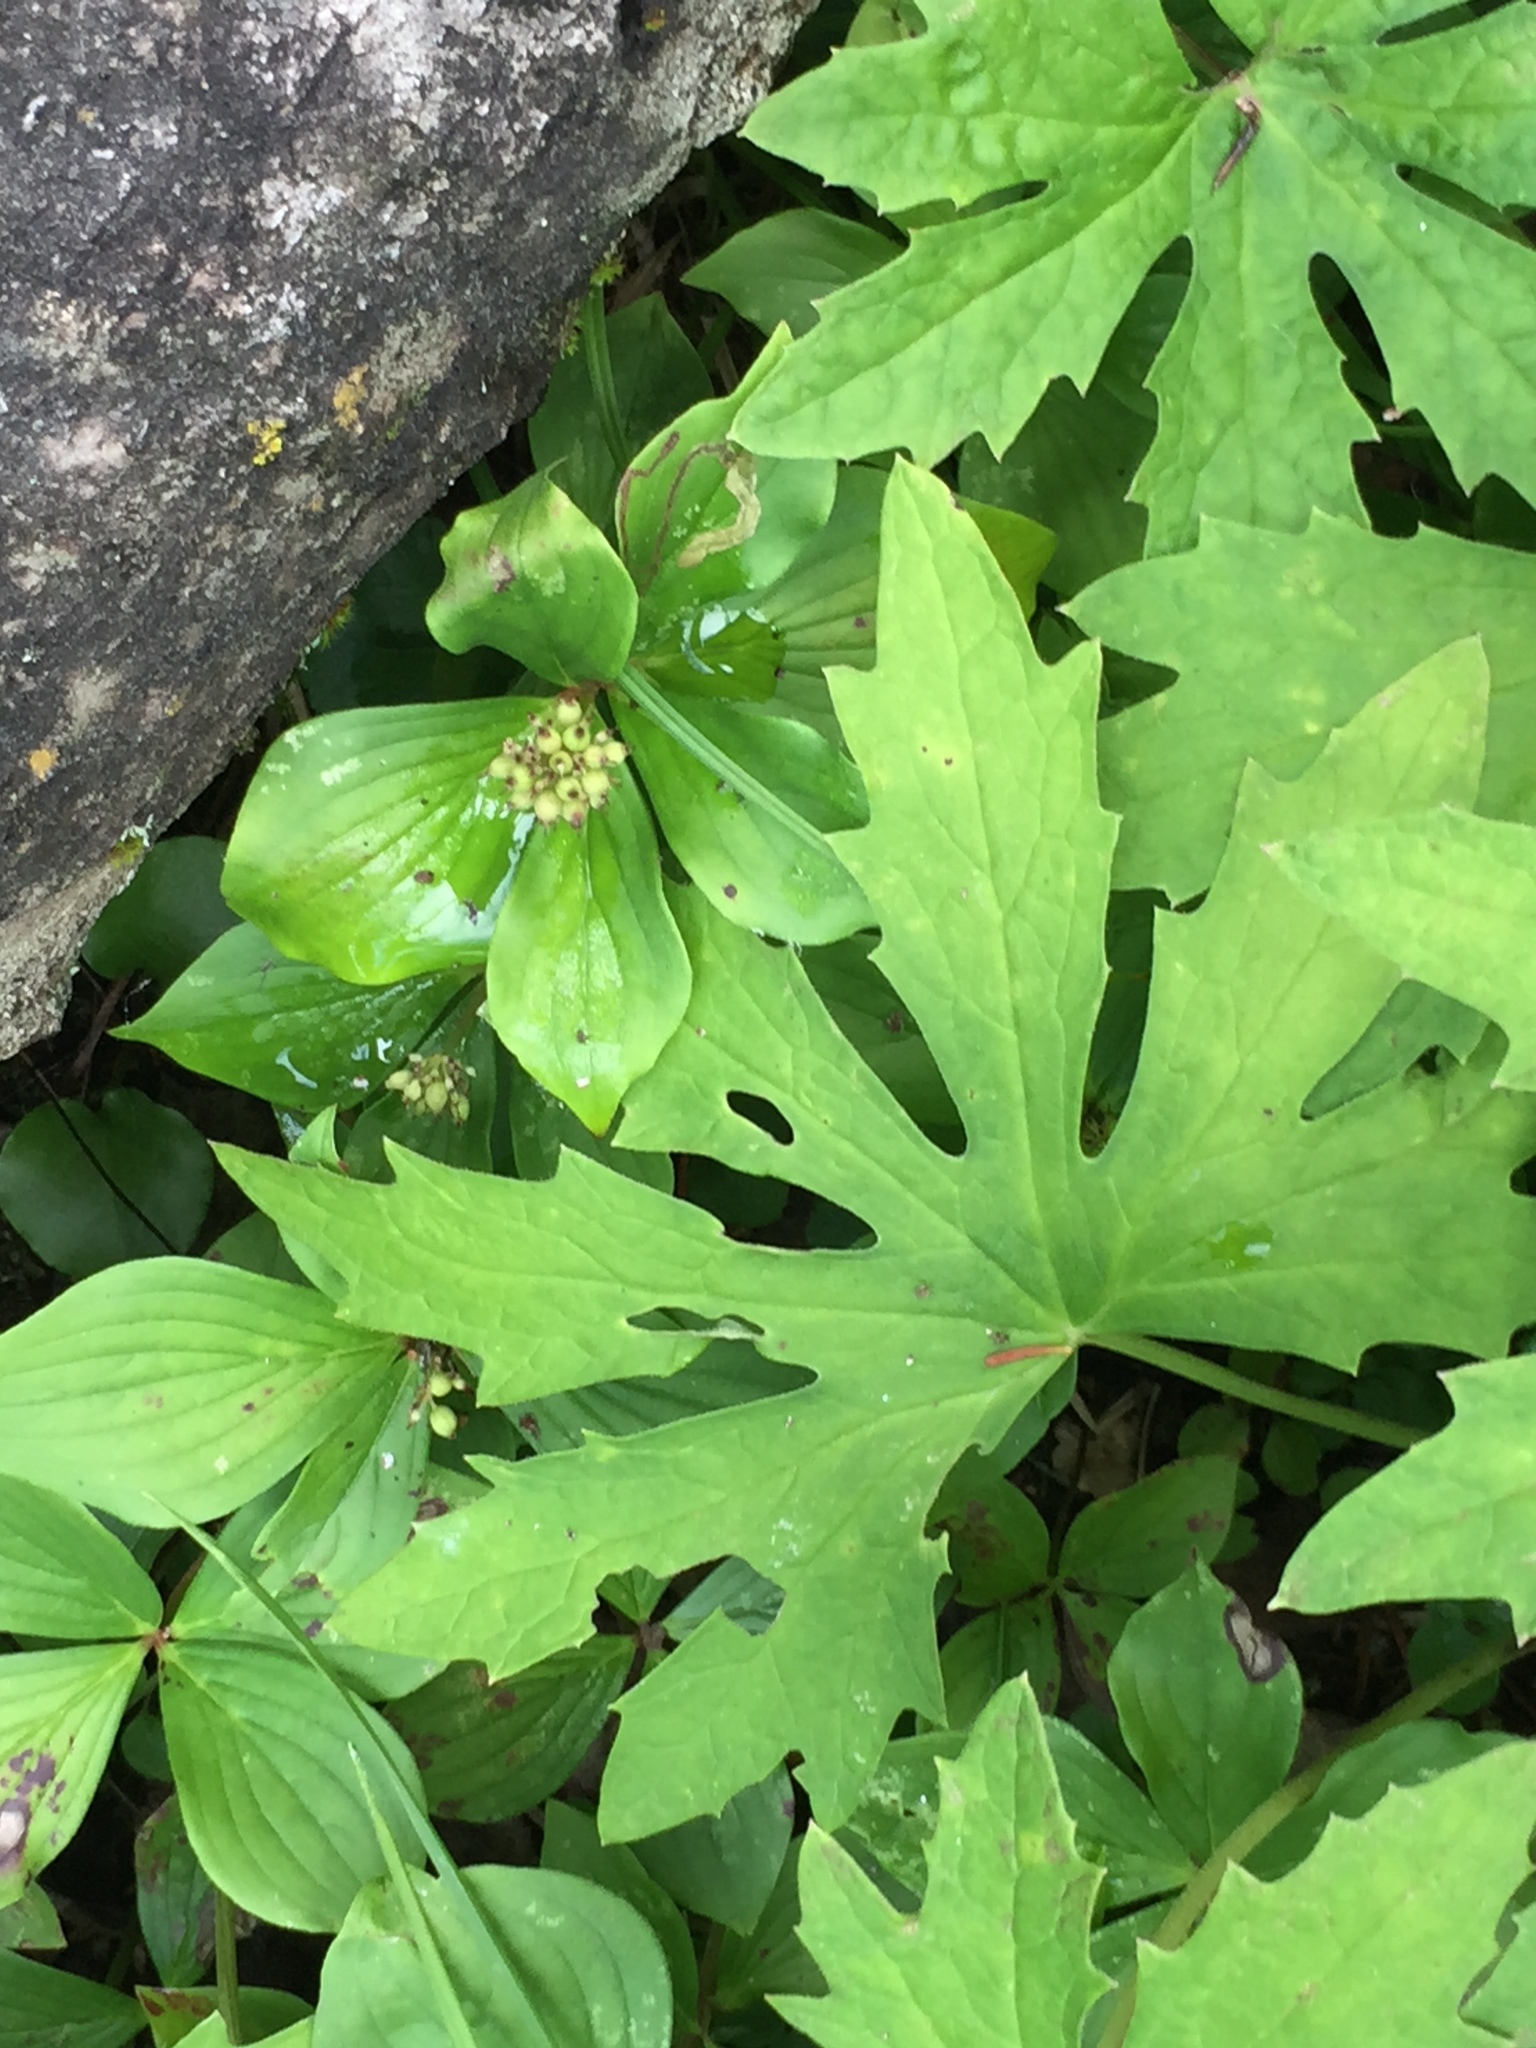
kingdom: Plantae
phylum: Tracheophyta
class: Magnoliopsida
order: Asterales
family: Asteraceae
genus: Petasites
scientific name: Petasites frigidus
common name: Arctic butterbur
